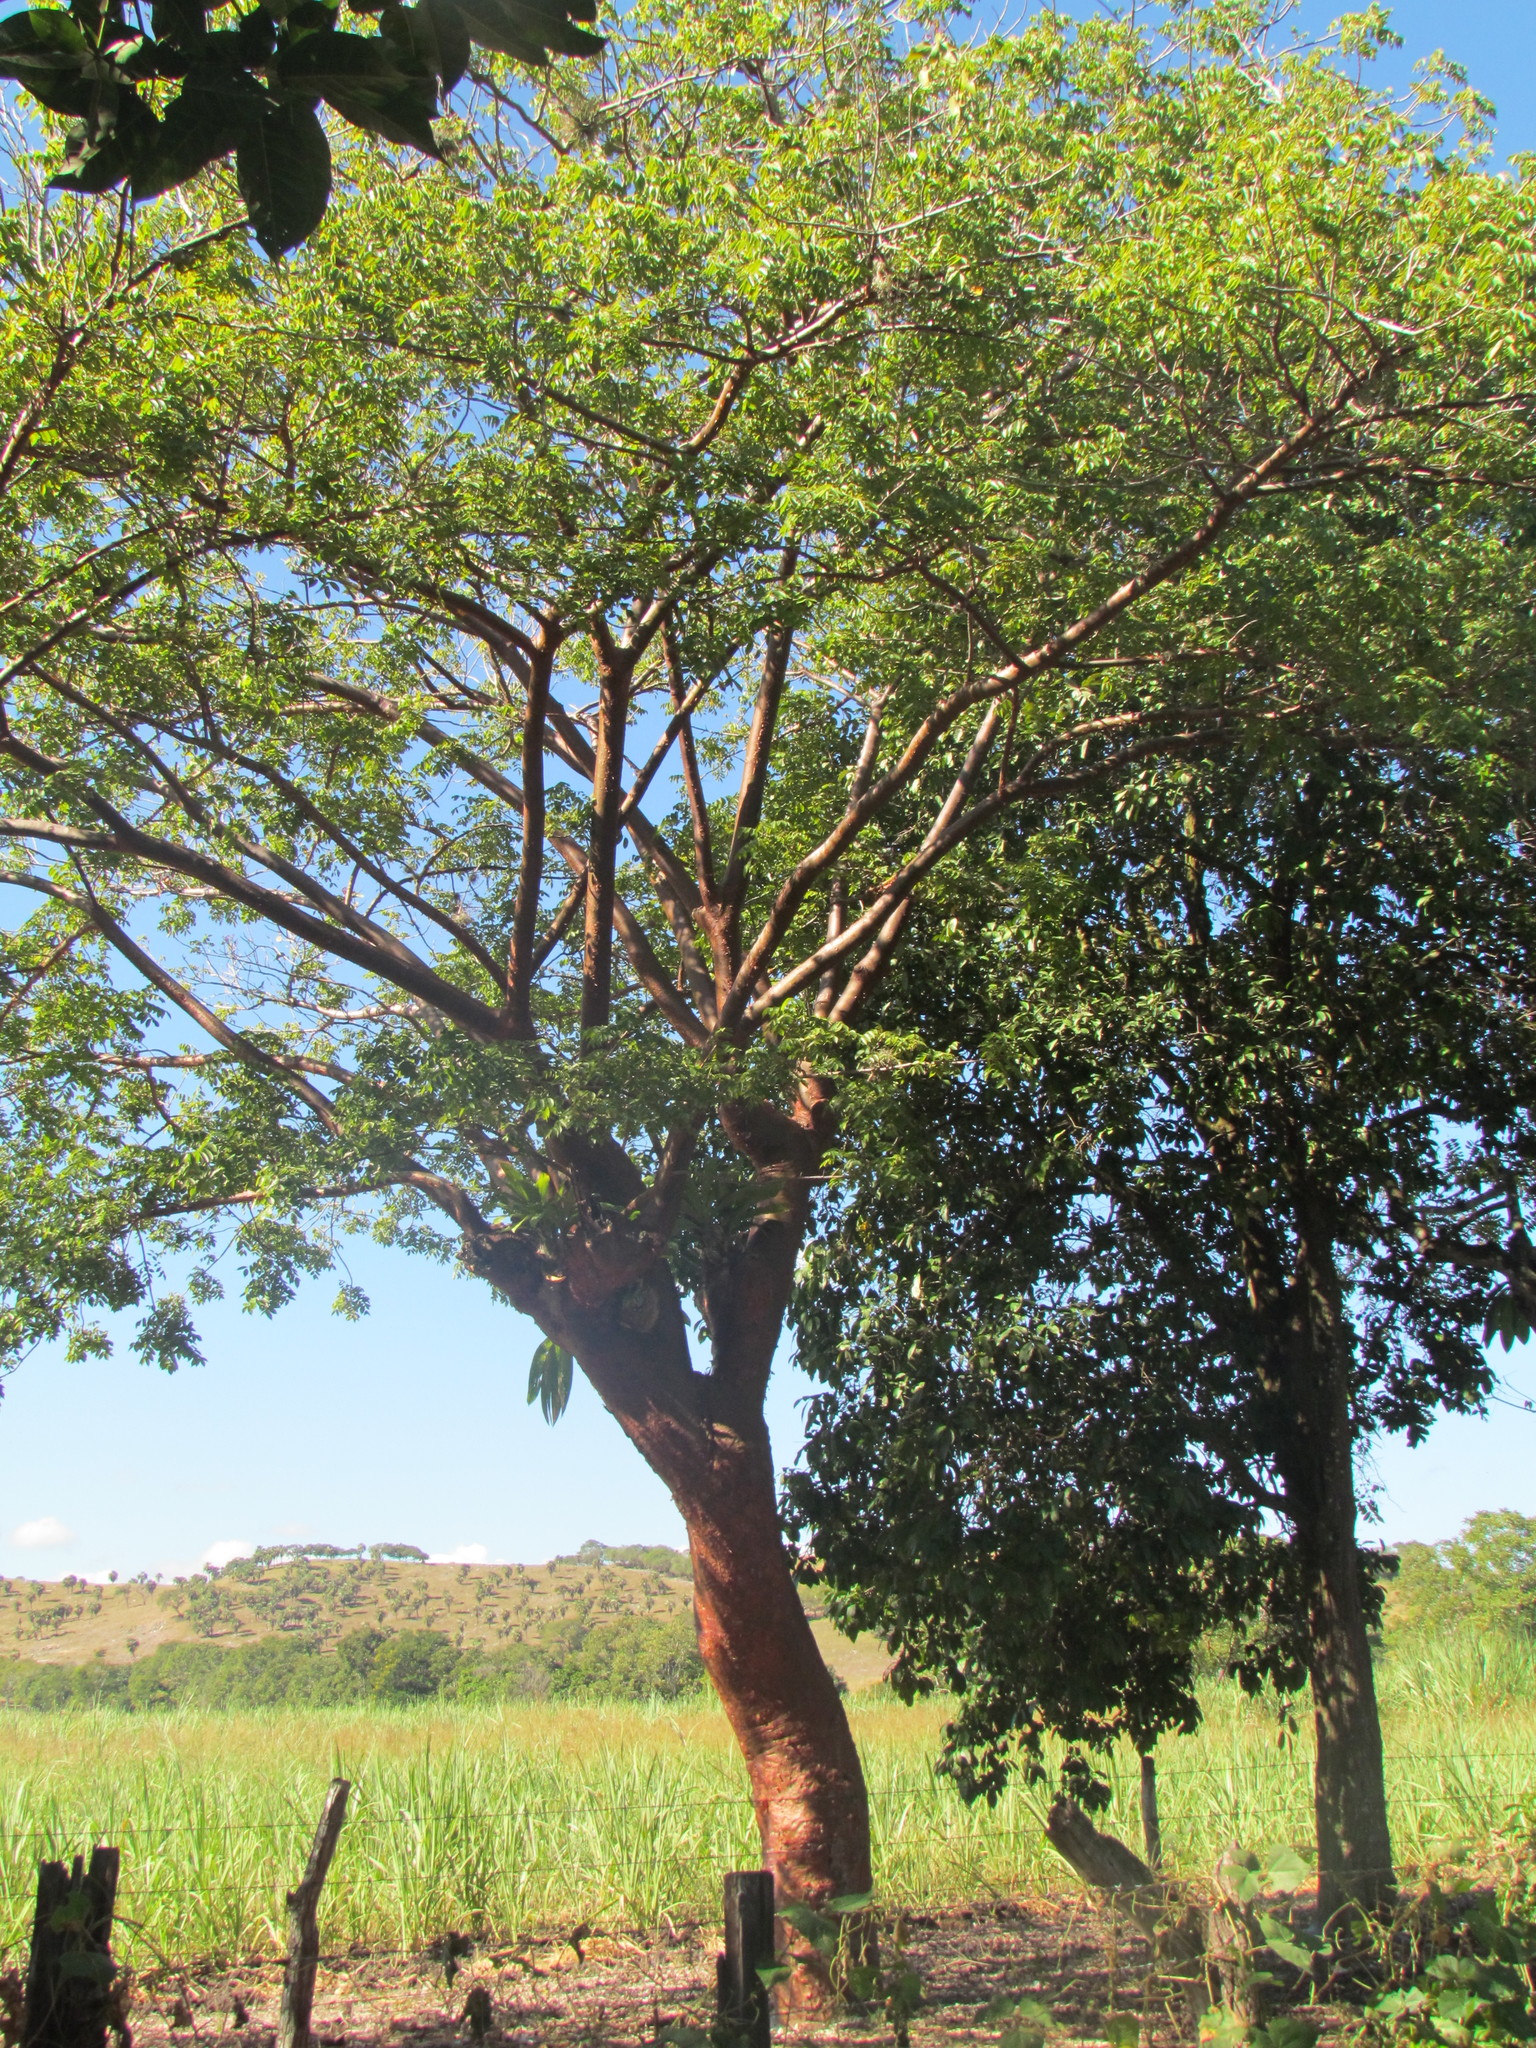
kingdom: Plantae
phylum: Tracheophyta
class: Magnoliopsida
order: Sapindales
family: Burseraceae
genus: Bursera
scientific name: Bursera simaruba
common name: Turpentine tree
